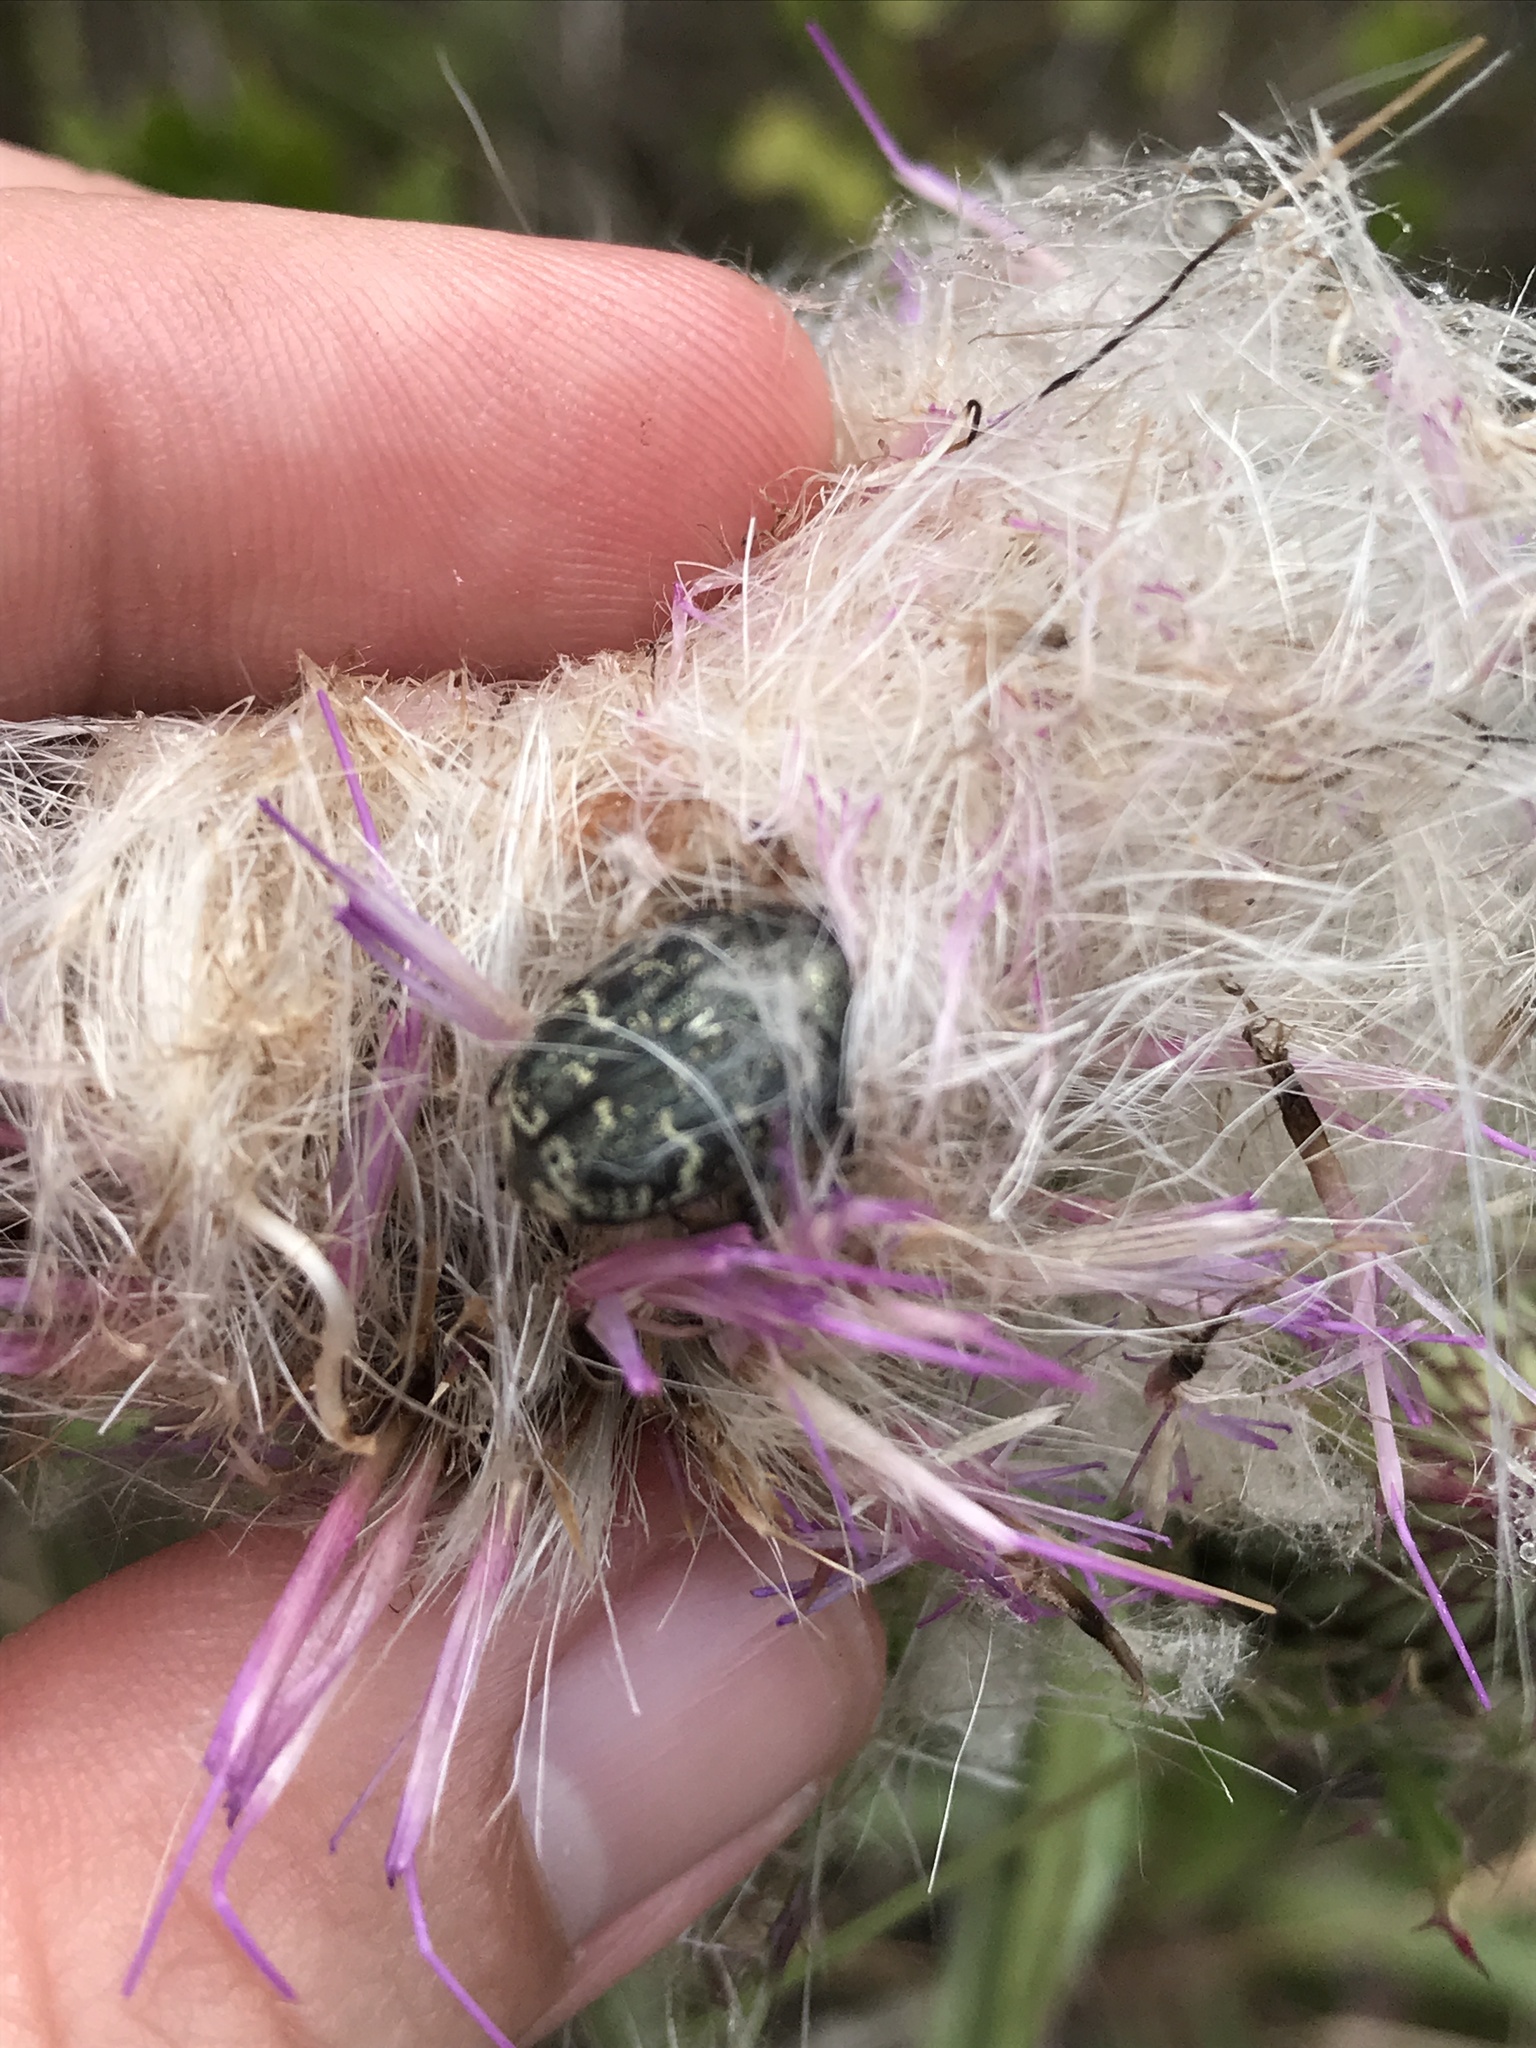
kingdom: Animalia
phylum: Arthropoda
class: Insecta
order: Coleoptera
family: Scarabaeidae
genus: Euphoria
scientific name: Euphoria sepulcralis
